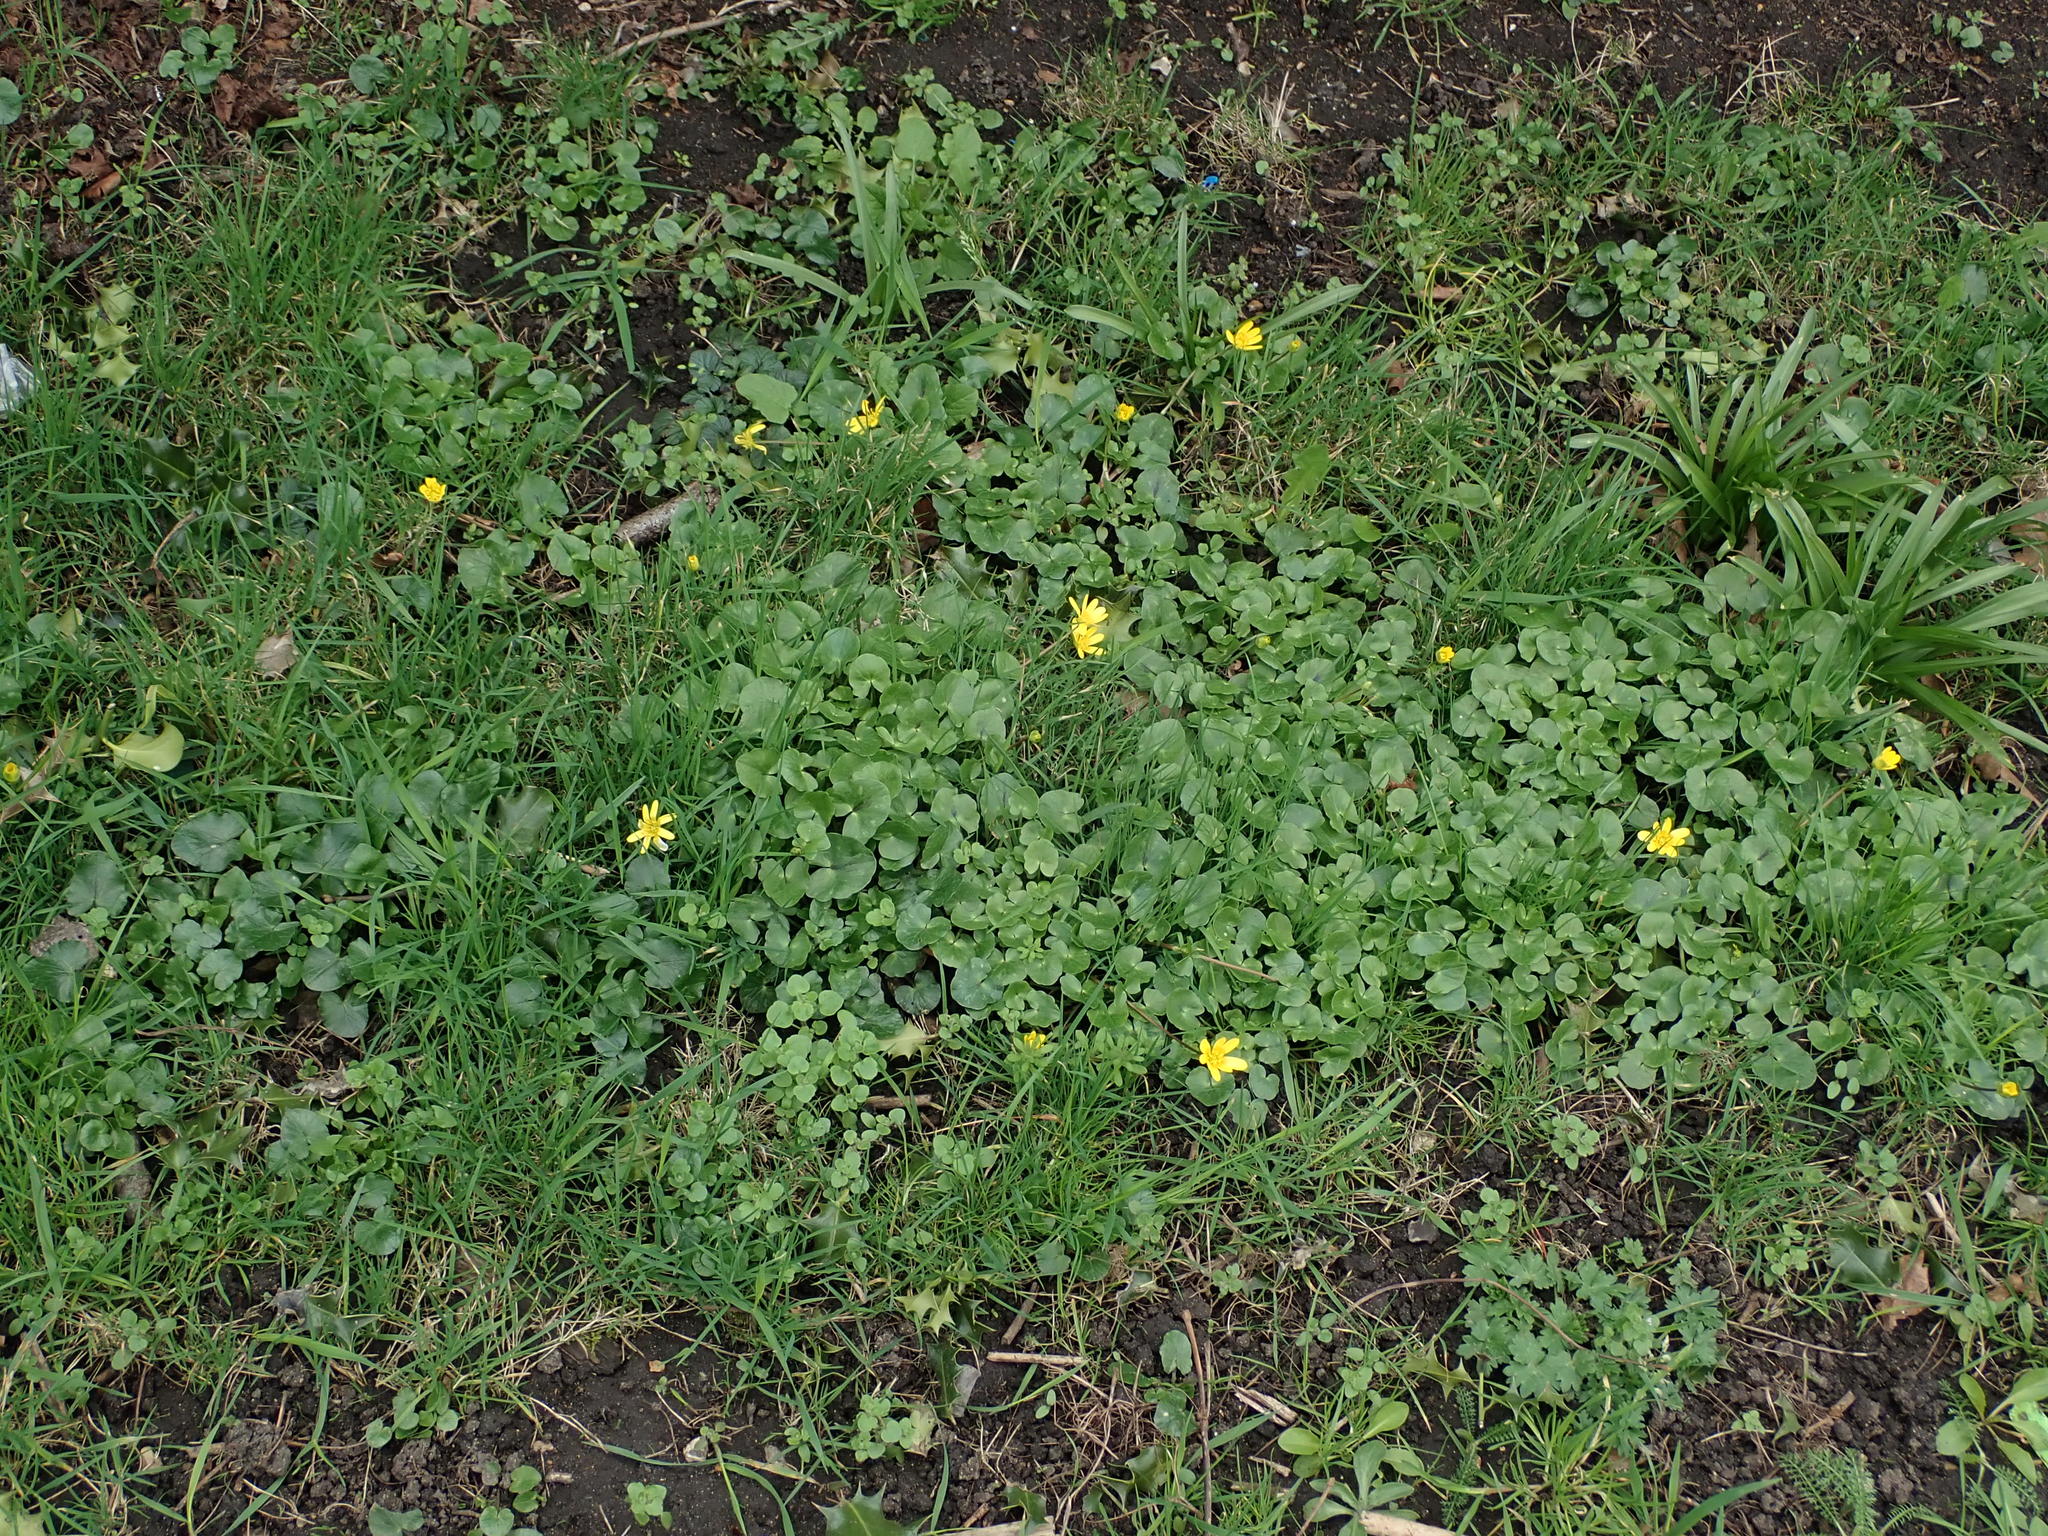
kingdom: Plantae
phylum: Tracheophyta
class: Magnoliopsida
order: Ranunculales
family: Ranunculaceae
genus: Ficaria
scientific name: Ficaria verna
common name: Lesser celandine
